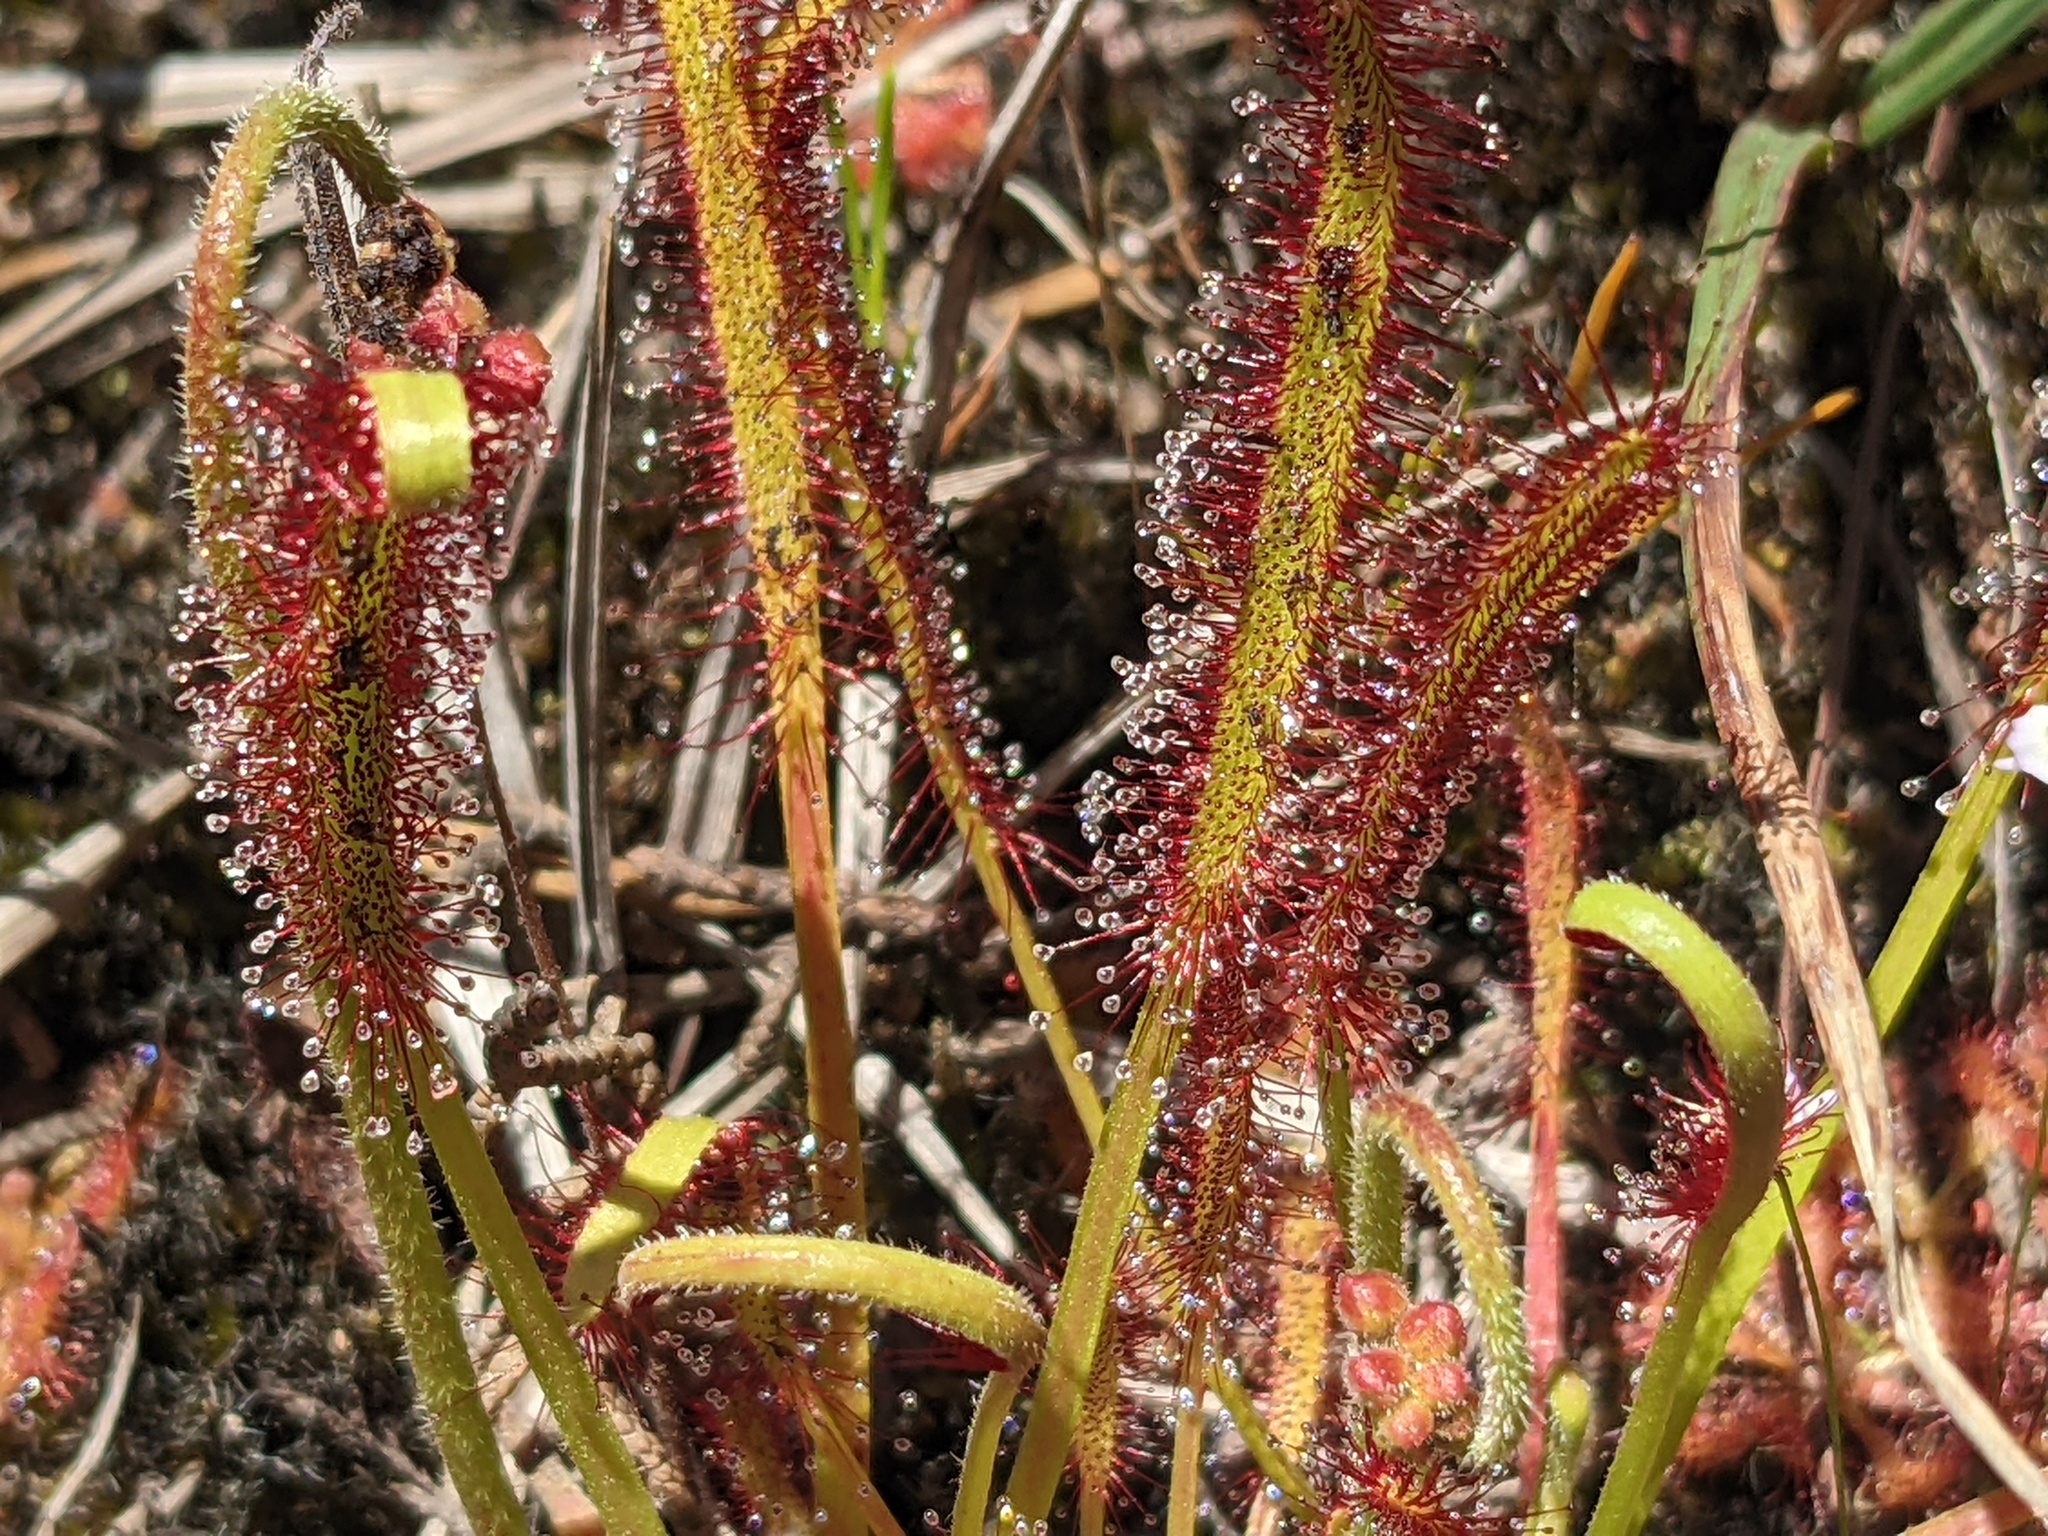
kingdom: Plantae
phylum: Tracheophyta
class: Magnoliopsida
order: Caryophyllales
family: Droseraceae
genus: Drosera
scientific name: Drosera capensis
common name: Cape sundew
